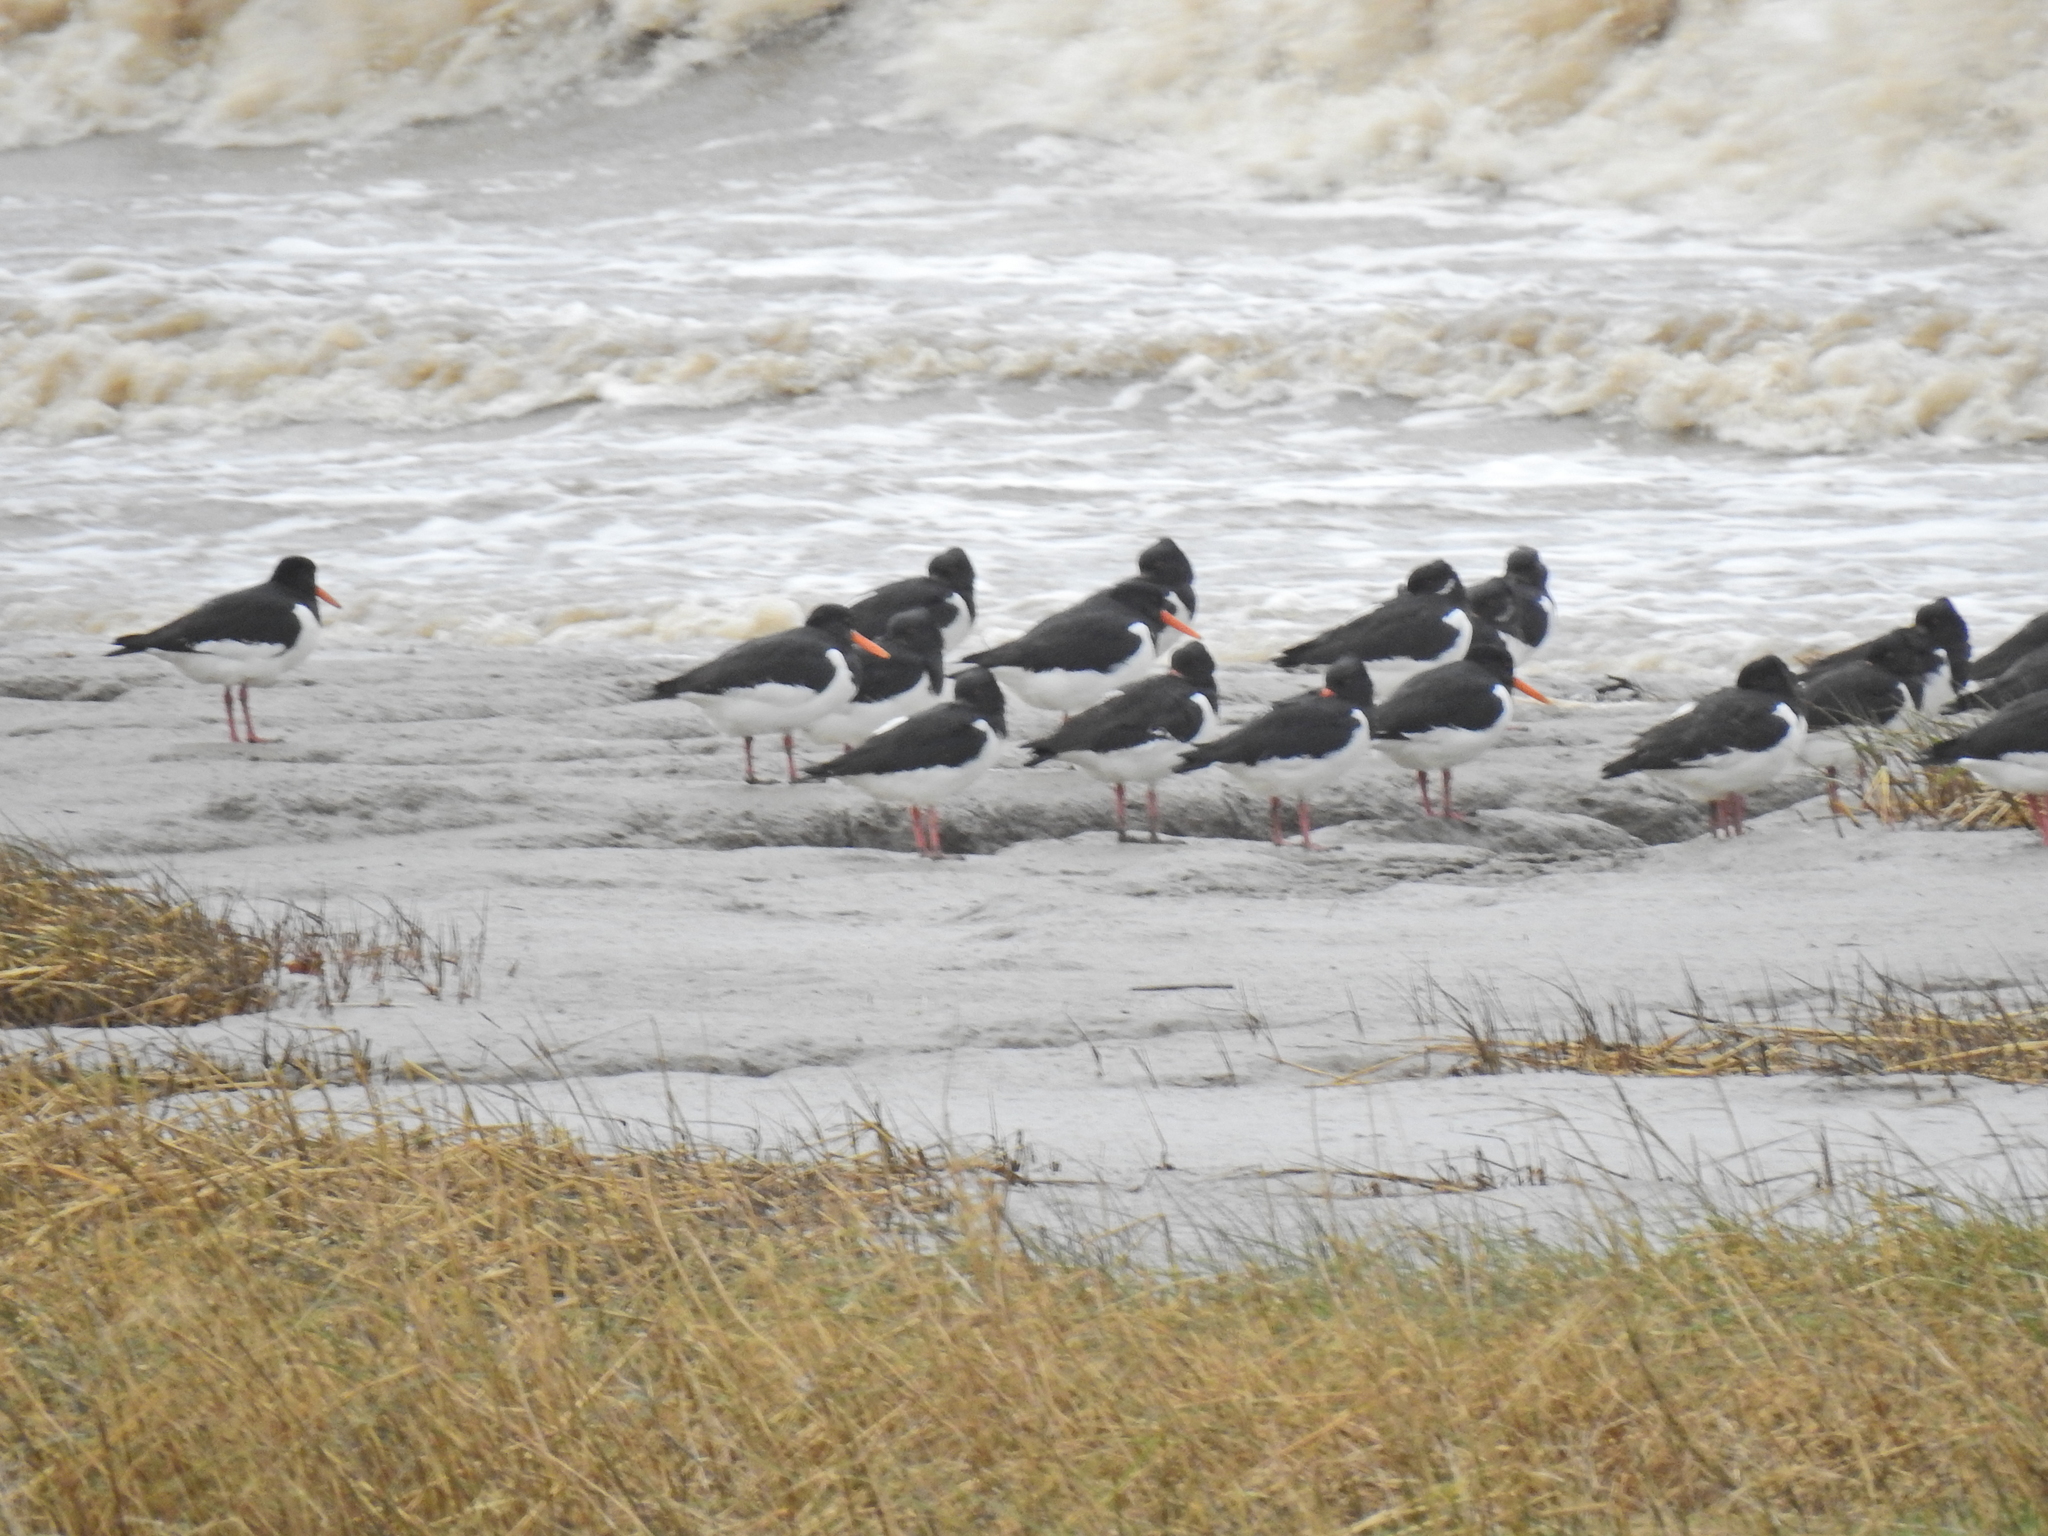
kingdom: Animalia
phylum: Chordata
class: Aves
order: Charadriiformes
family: Haematopodidae
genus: Haematopus
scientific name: Haematopus ostralegus
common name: Eurasian oystercatcher
